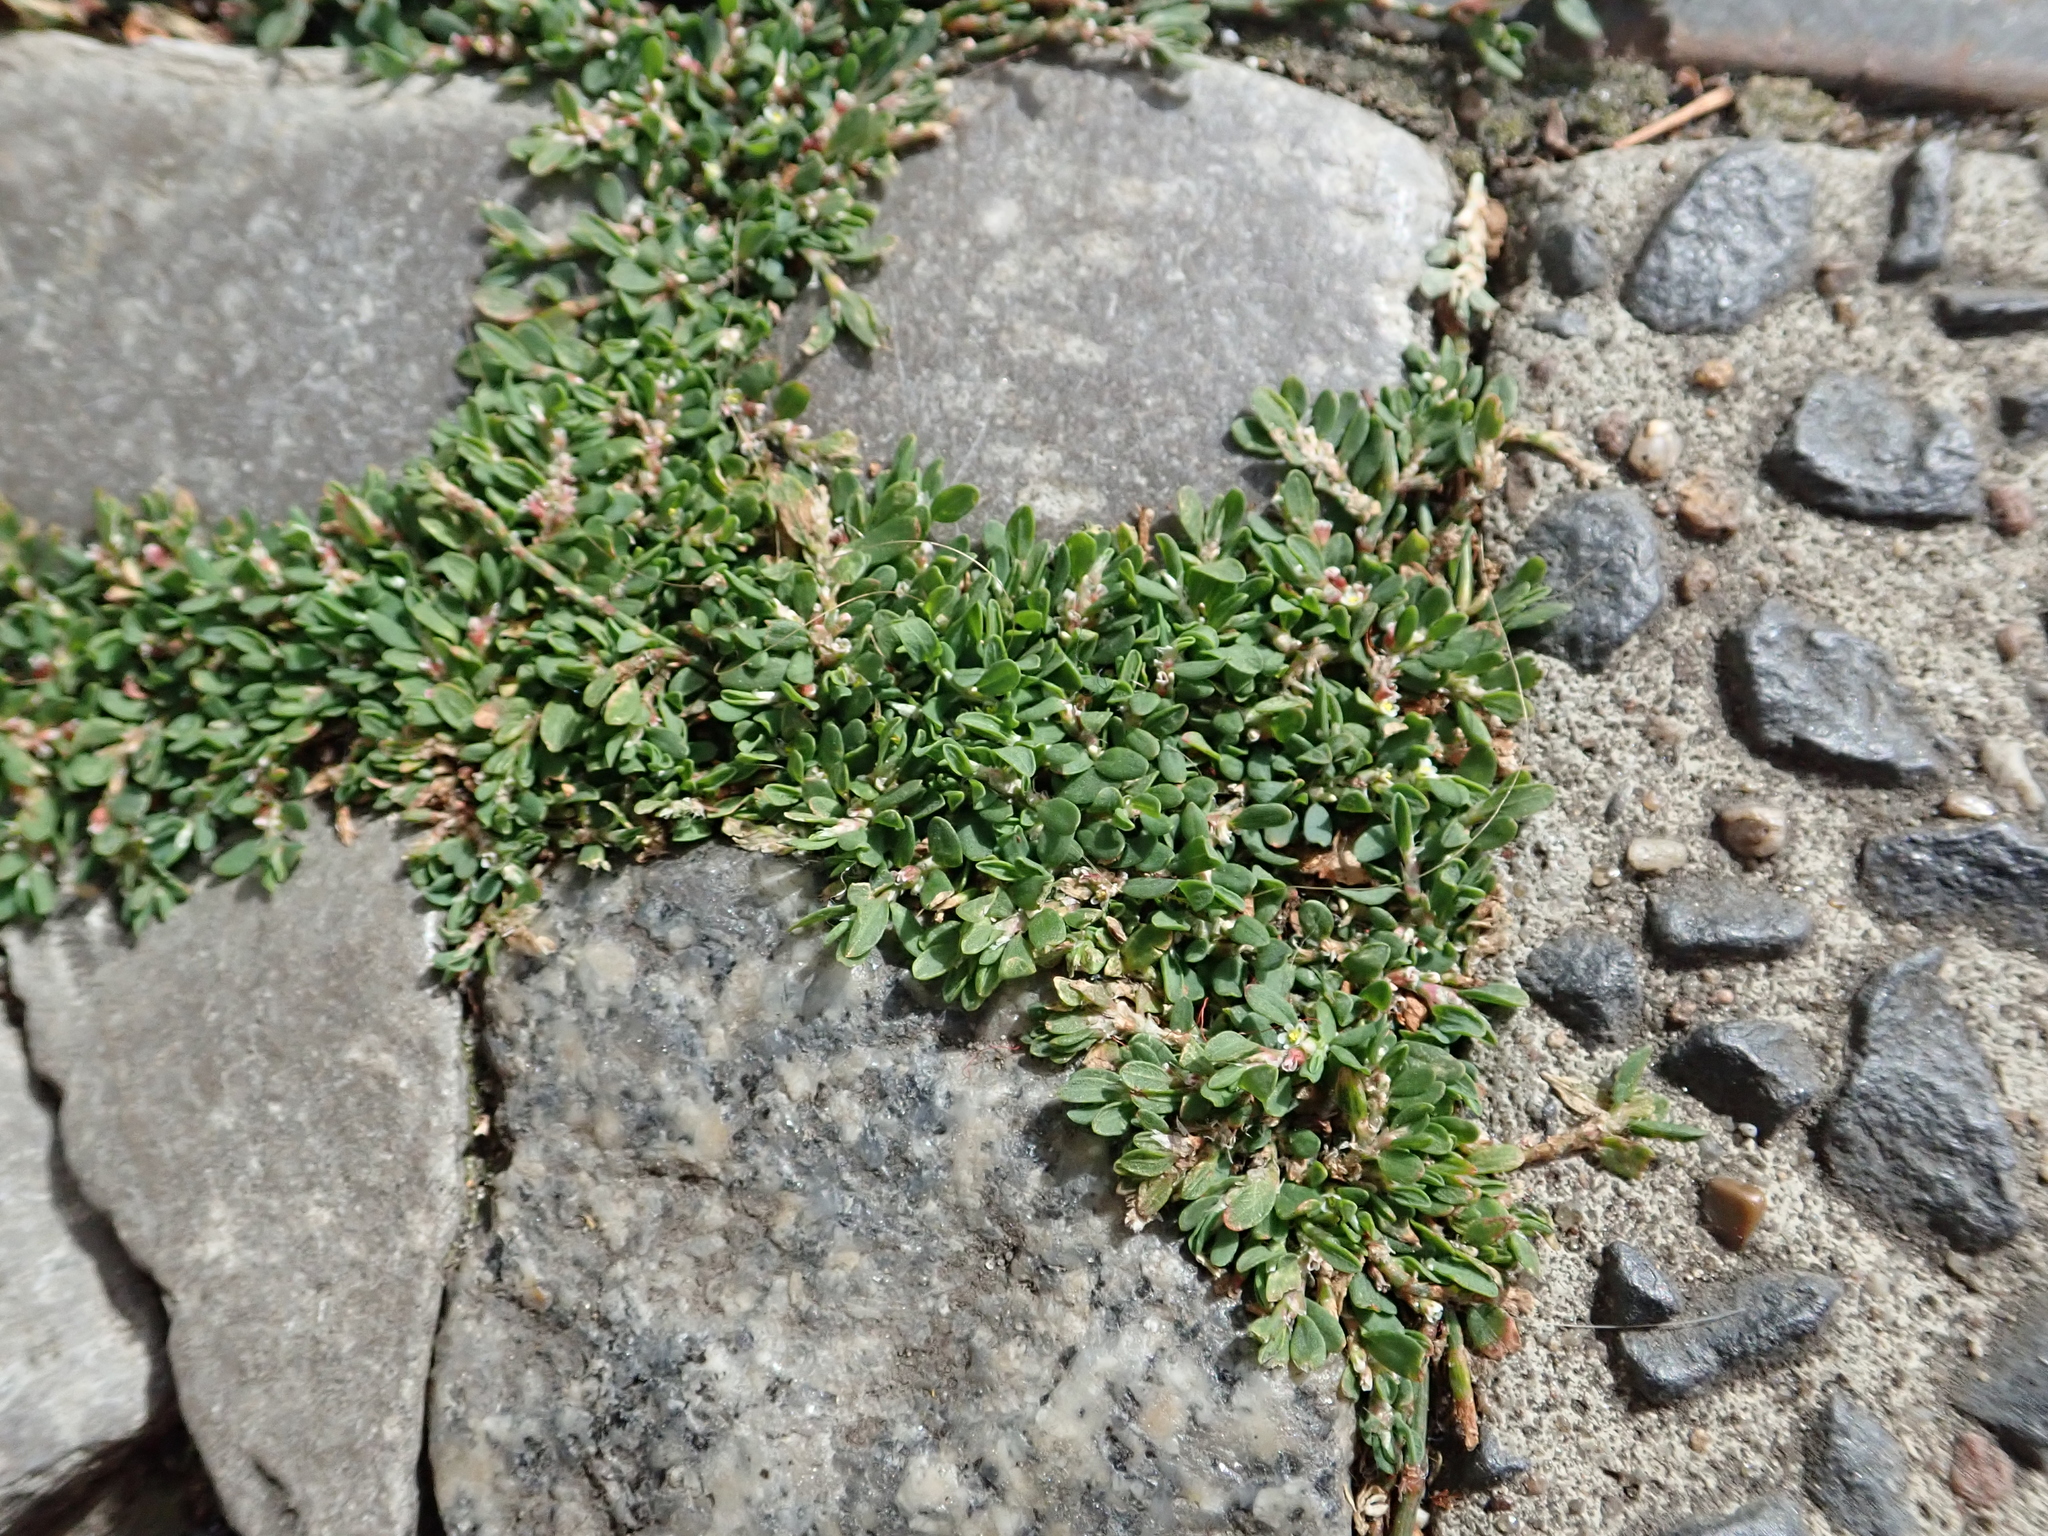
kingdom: Plantae
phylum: Tracheophyta
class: Magnoliopsida
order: Caryophyllales
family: Polygonaceae
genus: Polygonum
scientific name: Polygonum aviculare
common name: Prostrate knotweed
